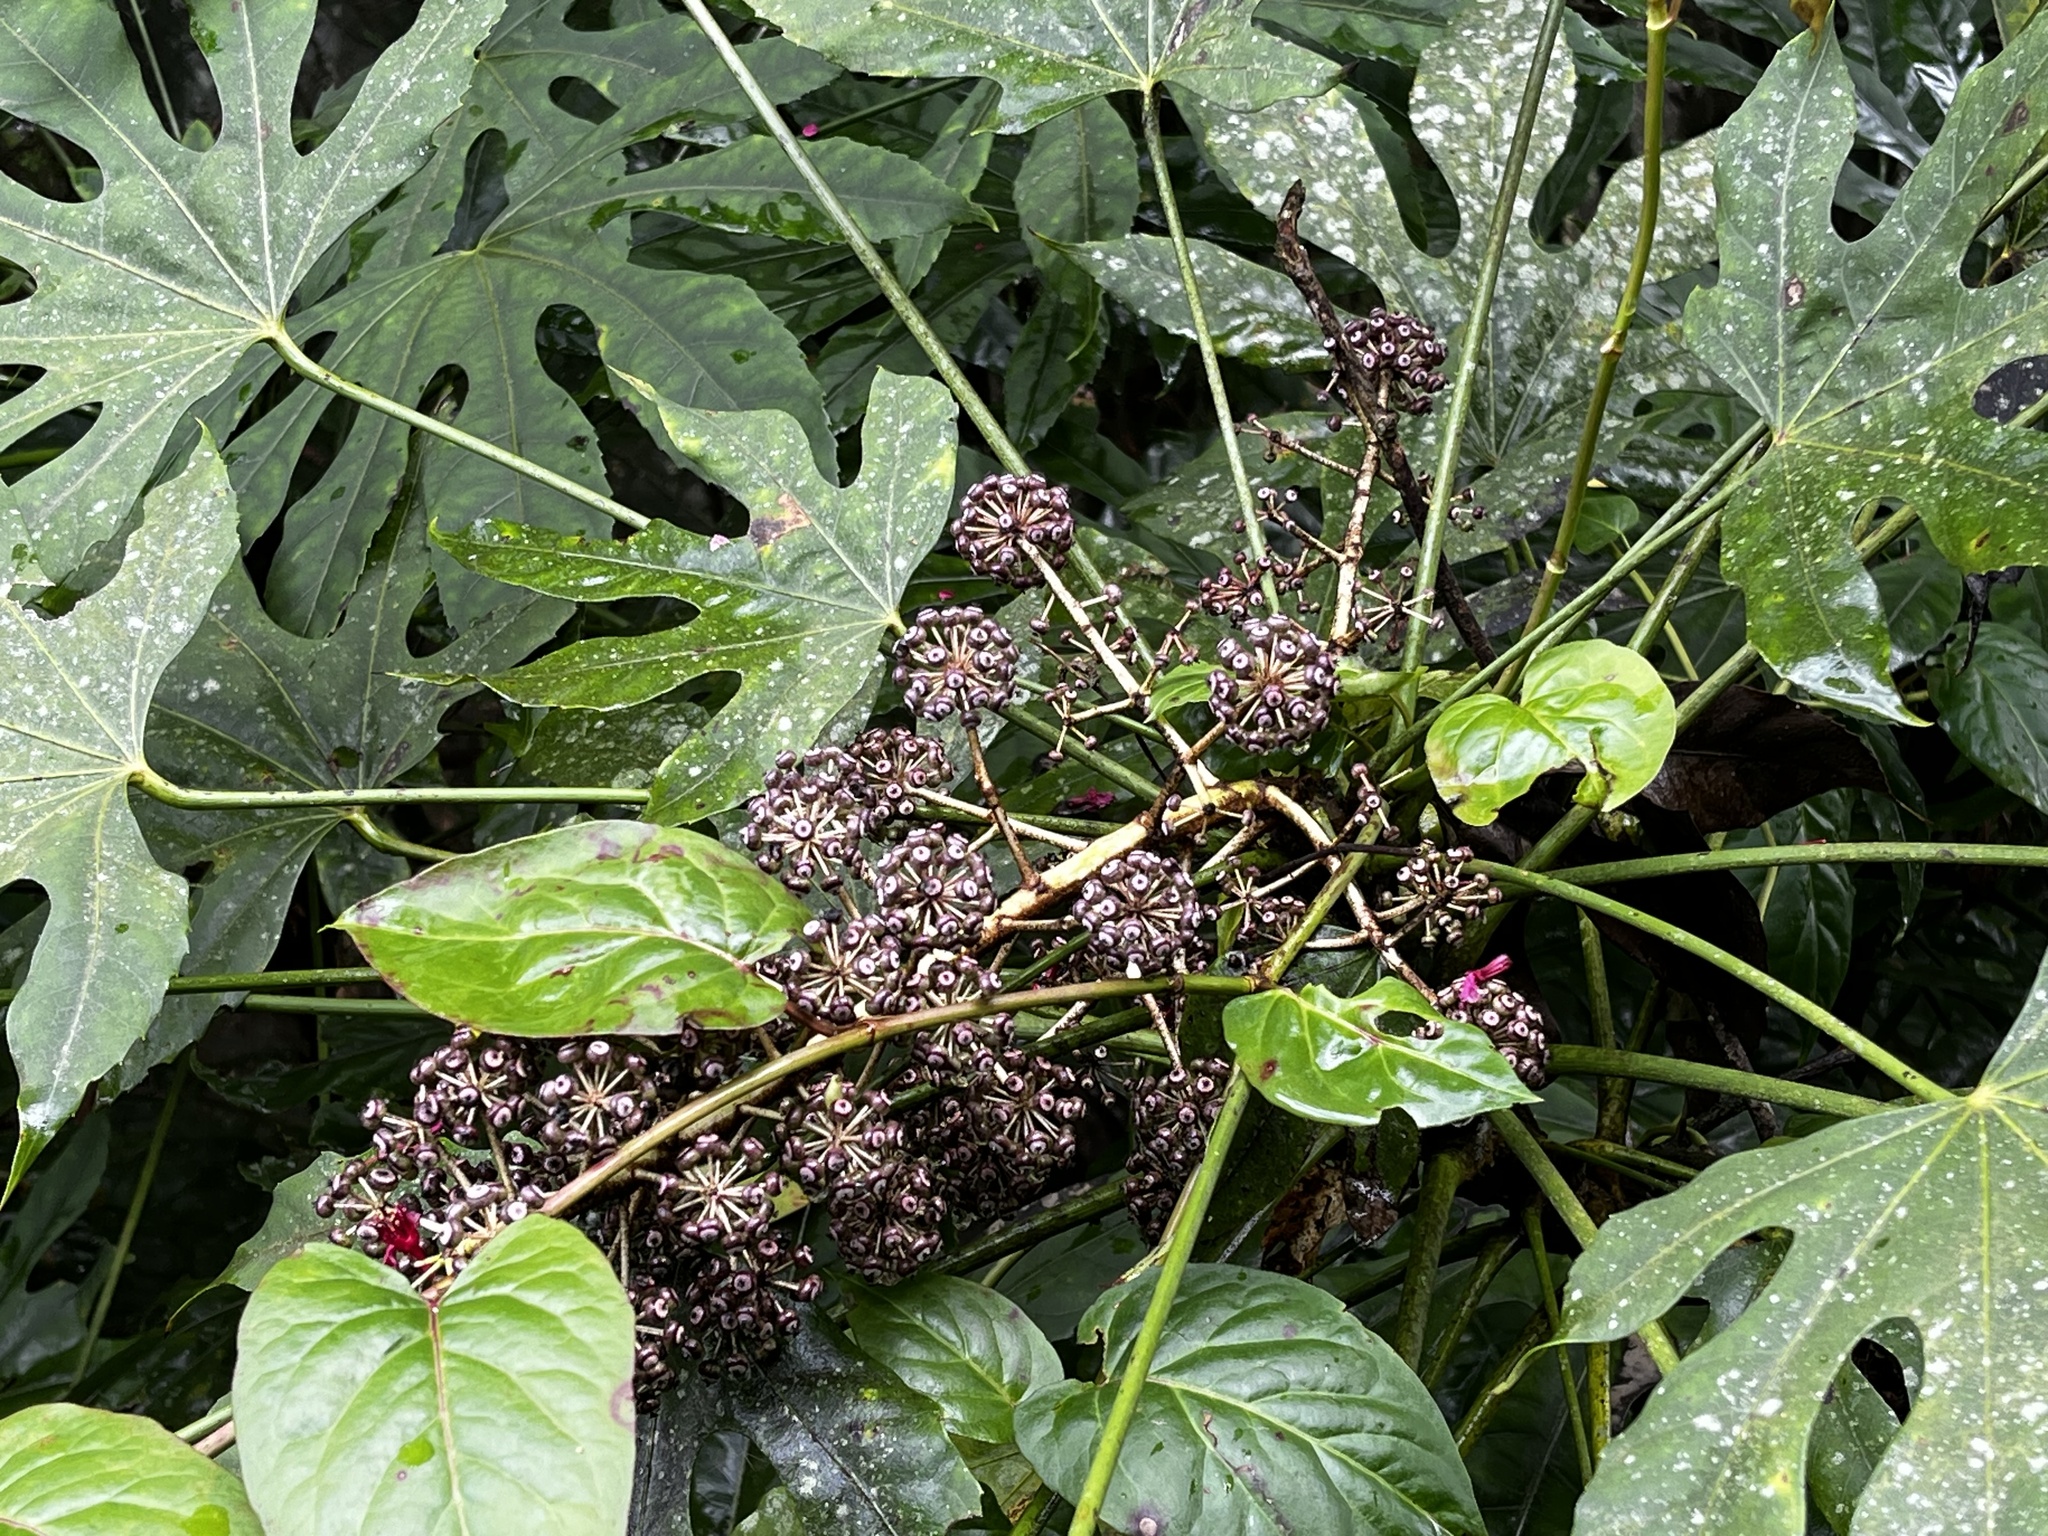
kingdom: Plantae
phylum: Tracheophyta
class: Magnoliopsida
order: Apiales
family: Araliaceae
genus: Fatsia
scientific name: Fatsia polycarpa
